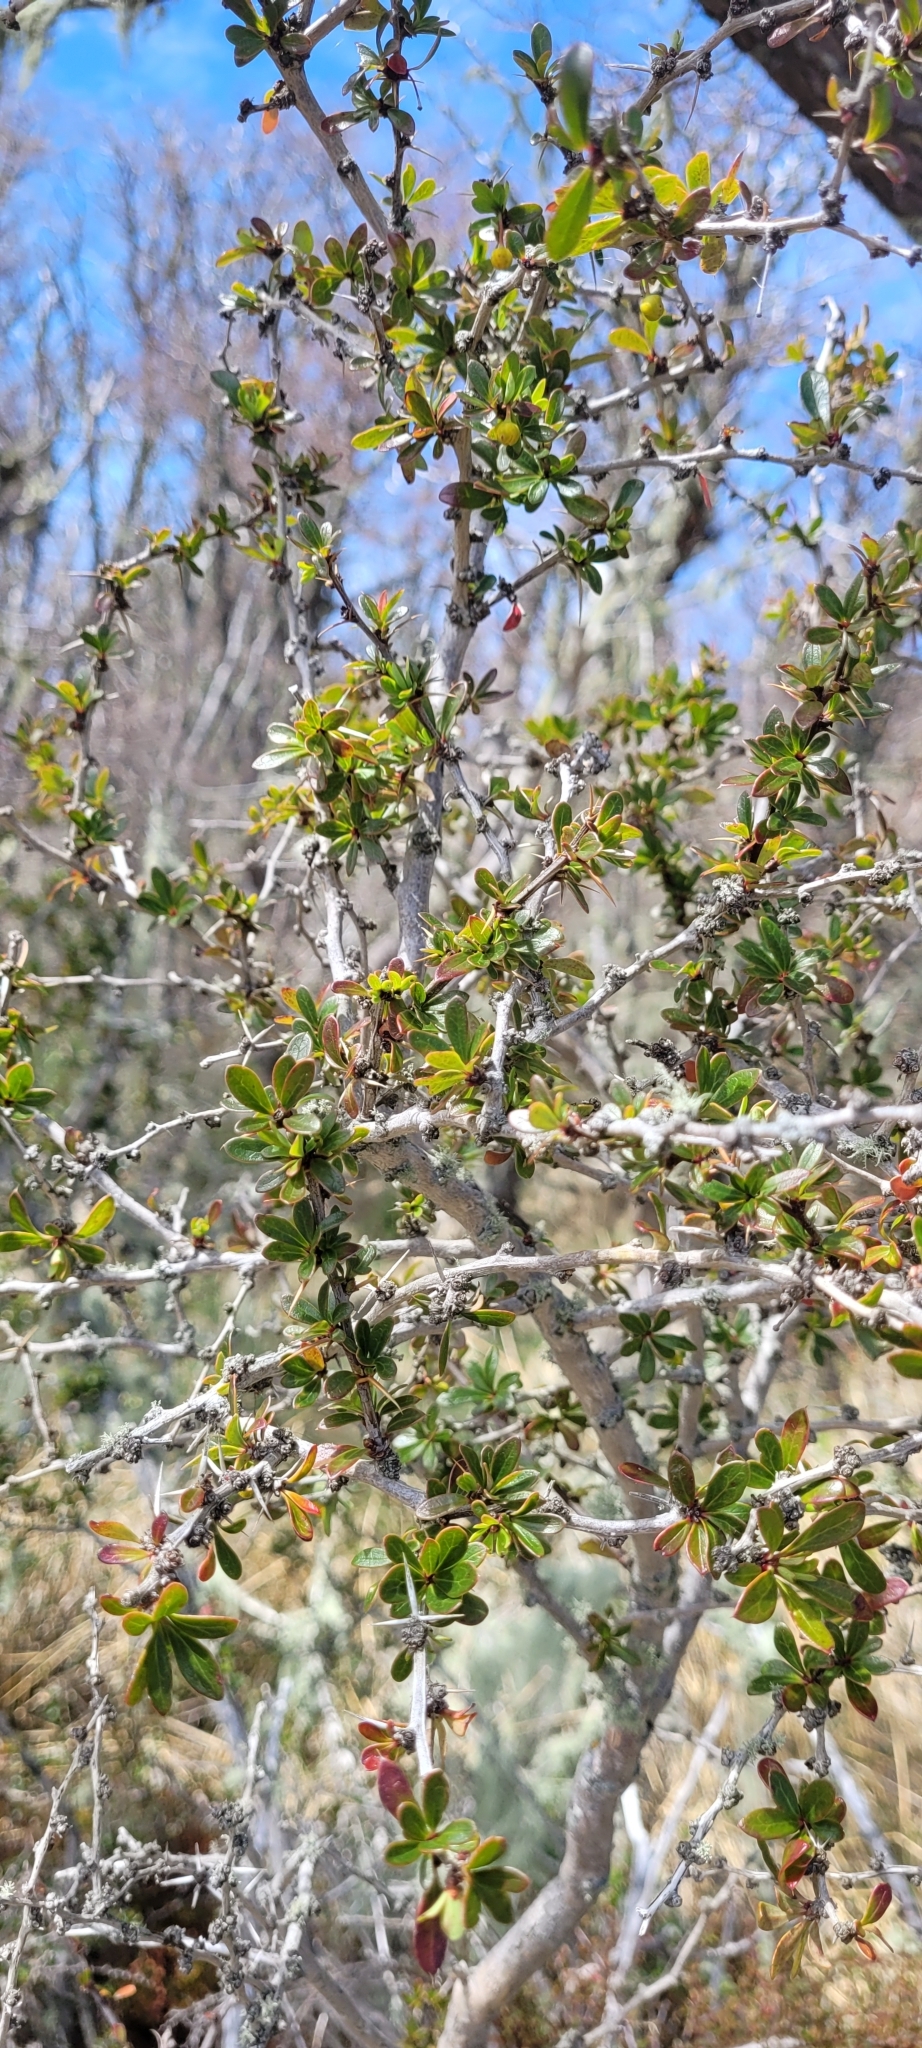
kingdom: Plantae
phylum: Tracheophyta
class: Magnoliopsida
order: Ranunculales
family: Berberidaceae
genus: Berberis
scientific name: Berberis microphylla
